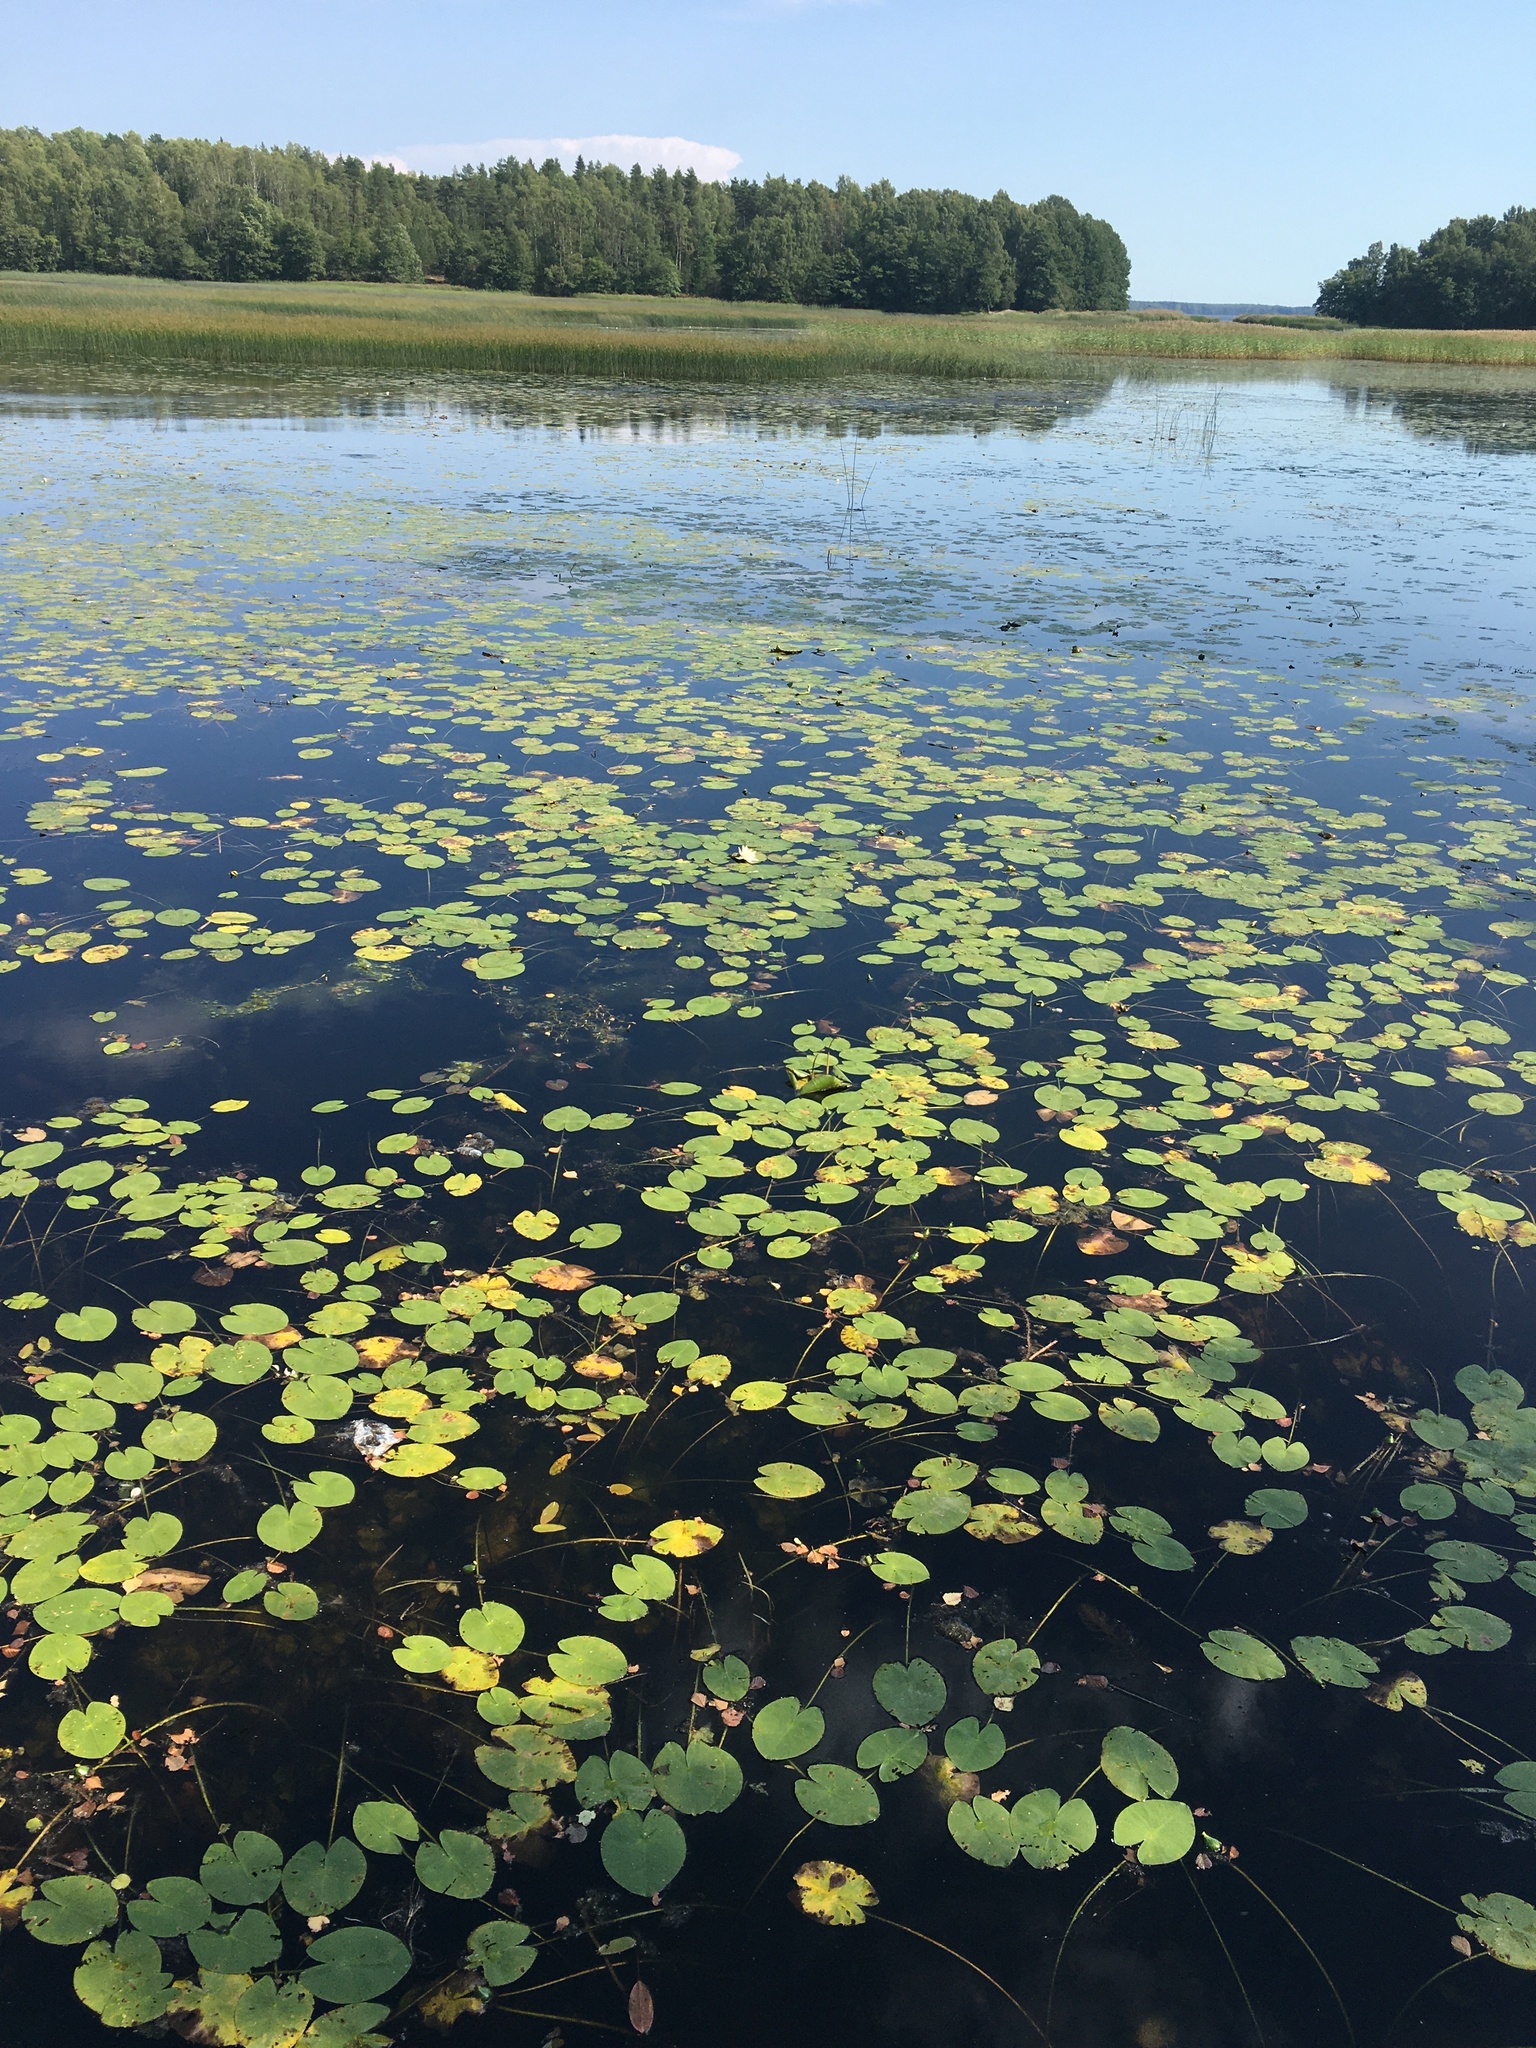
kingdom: Plantae
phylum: Tracheophyta
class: Magnoliopsida
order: Nymphaeales
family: Nymphaeaceae
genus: Nymphaea
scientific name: Nymphaea candida
